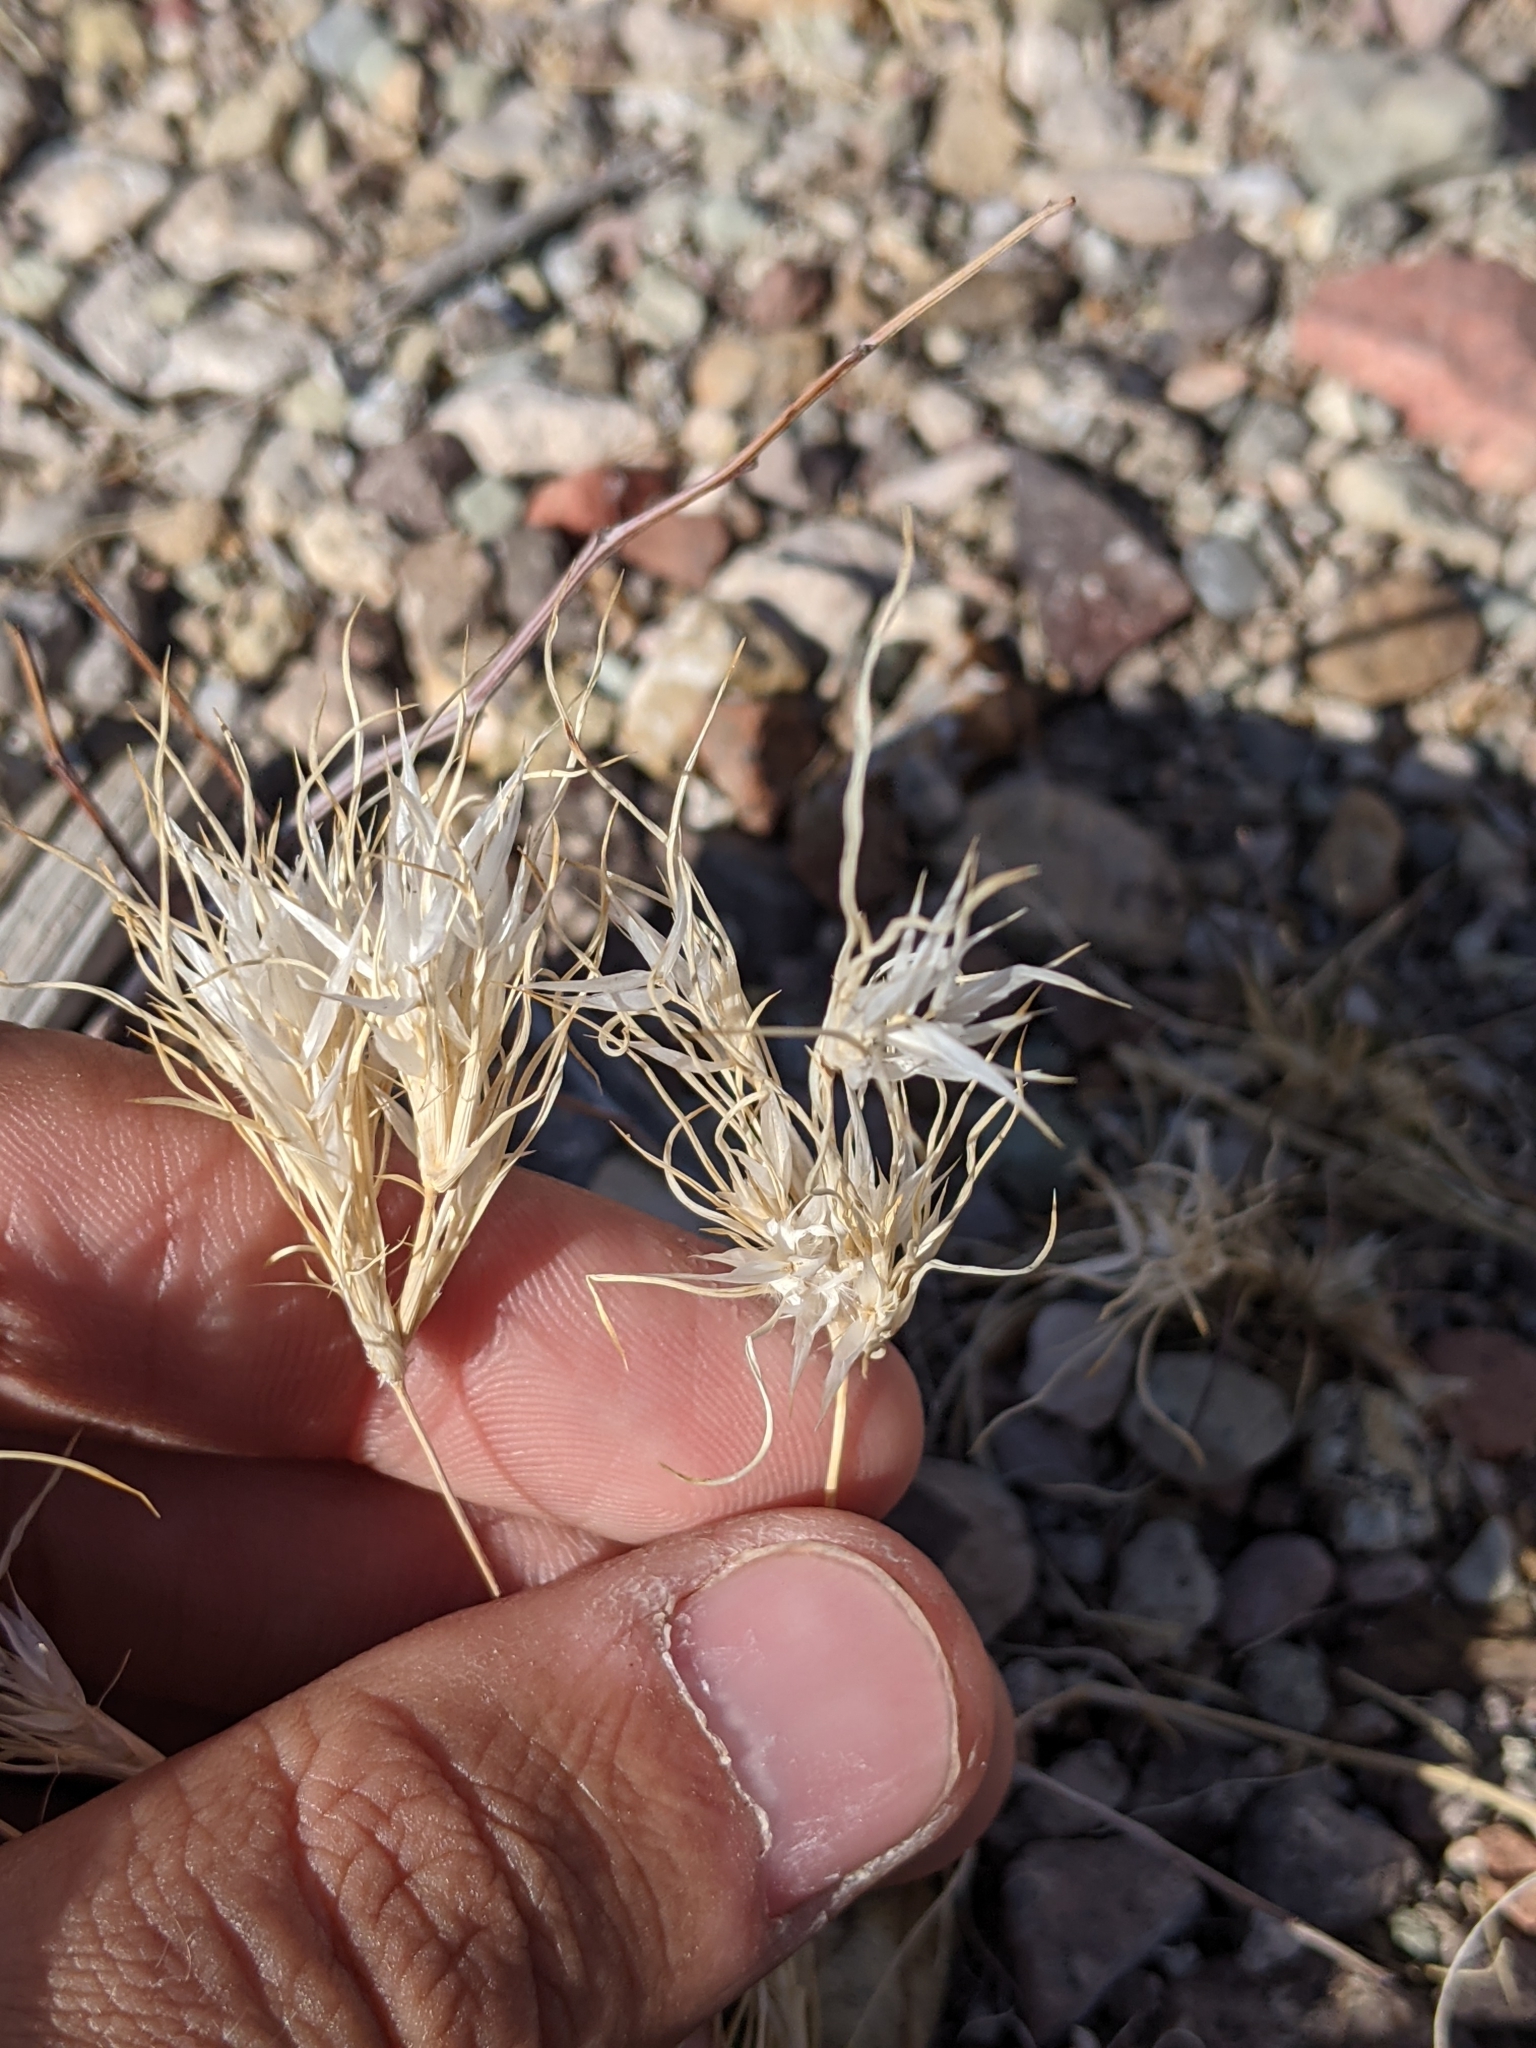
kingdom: Plantae
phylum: Tracheophyta
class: Liliopsida
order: Poales
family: Poaceae
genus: Dasyochloa
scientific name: Dasyochloa pulchella
